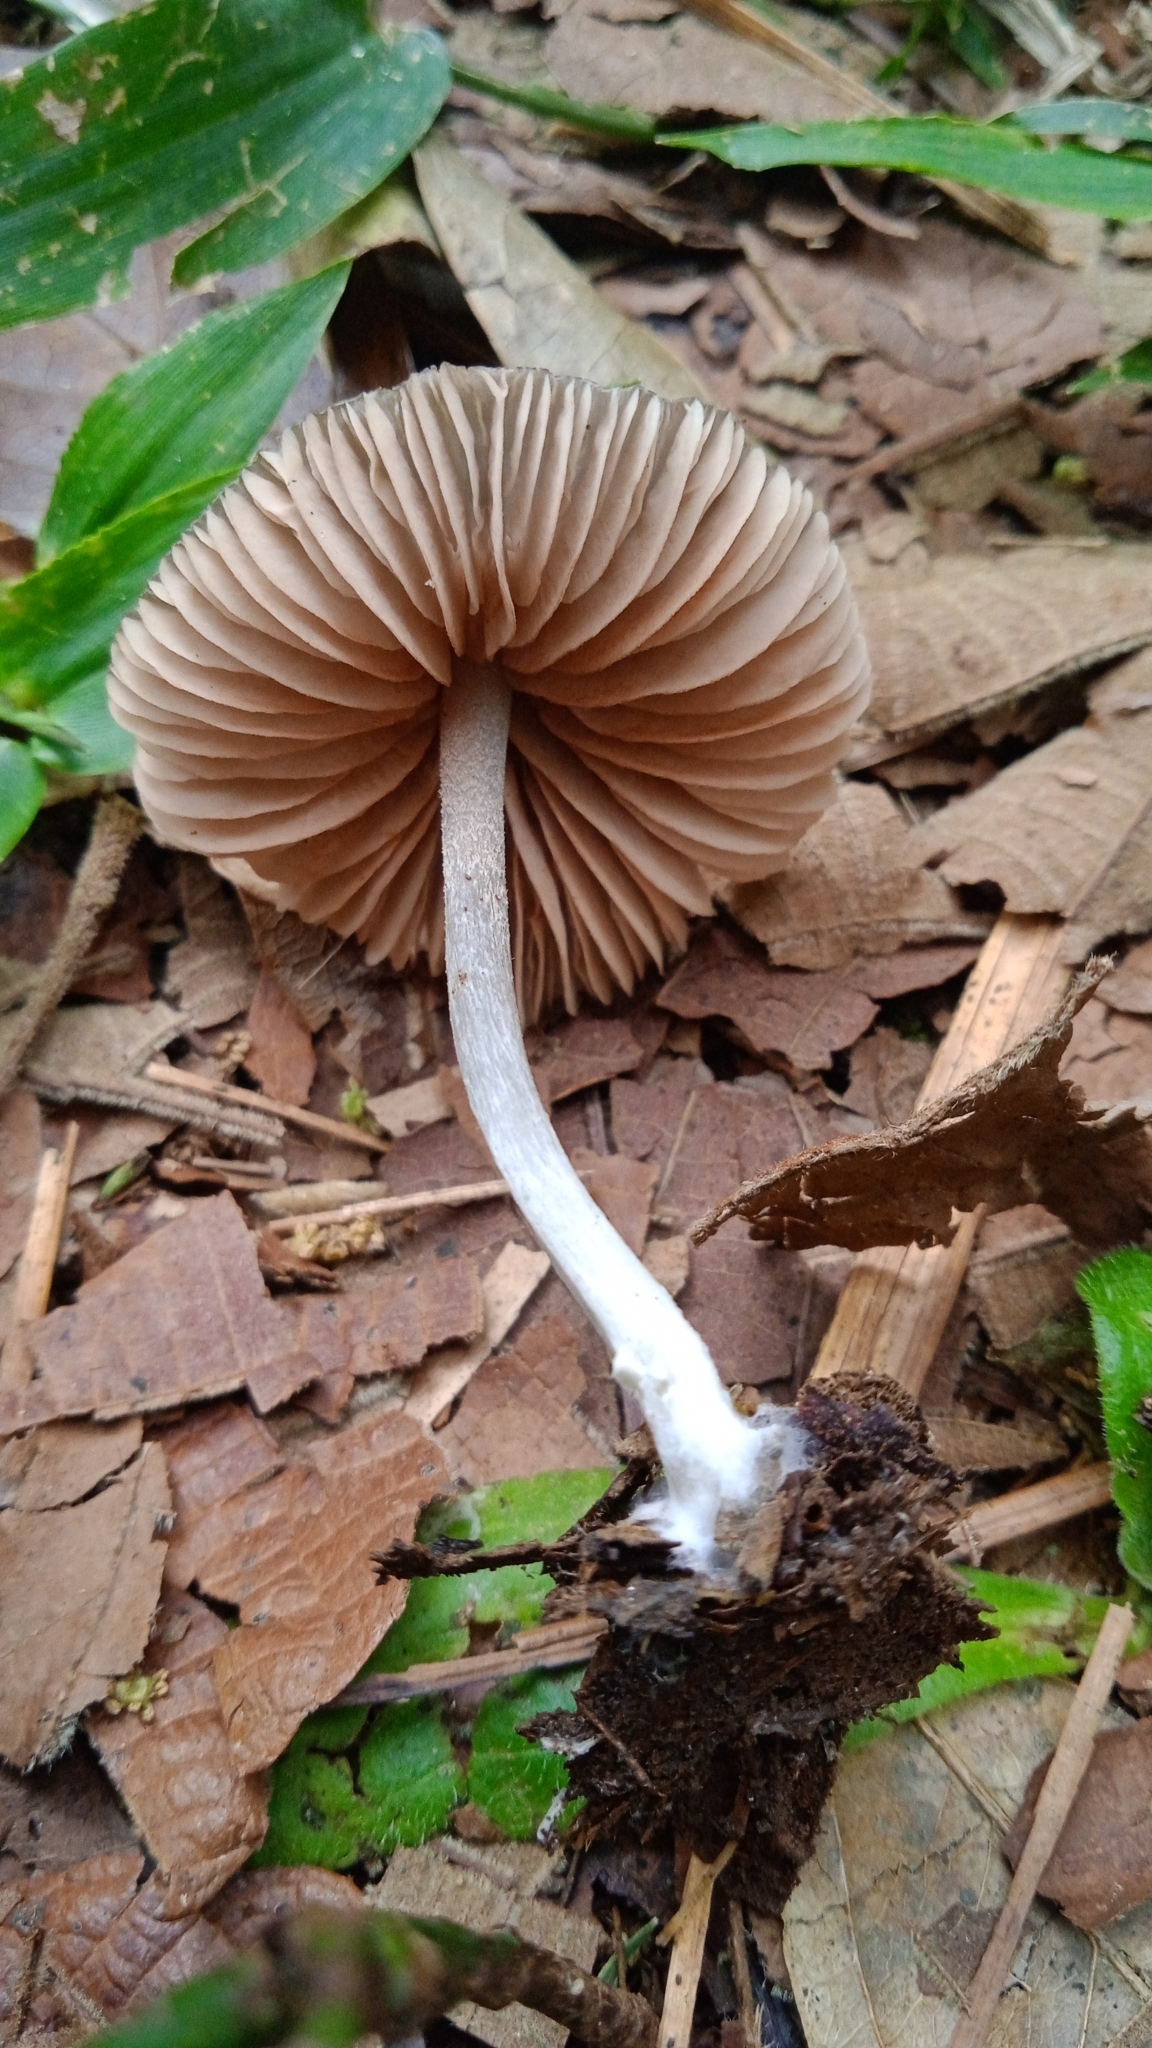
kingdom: Fungi
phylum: Basidiomycota
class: Agaricomycetes
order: Agaricales
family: Entolomataceae
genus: Entoloma
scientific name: Entoloma sodale
